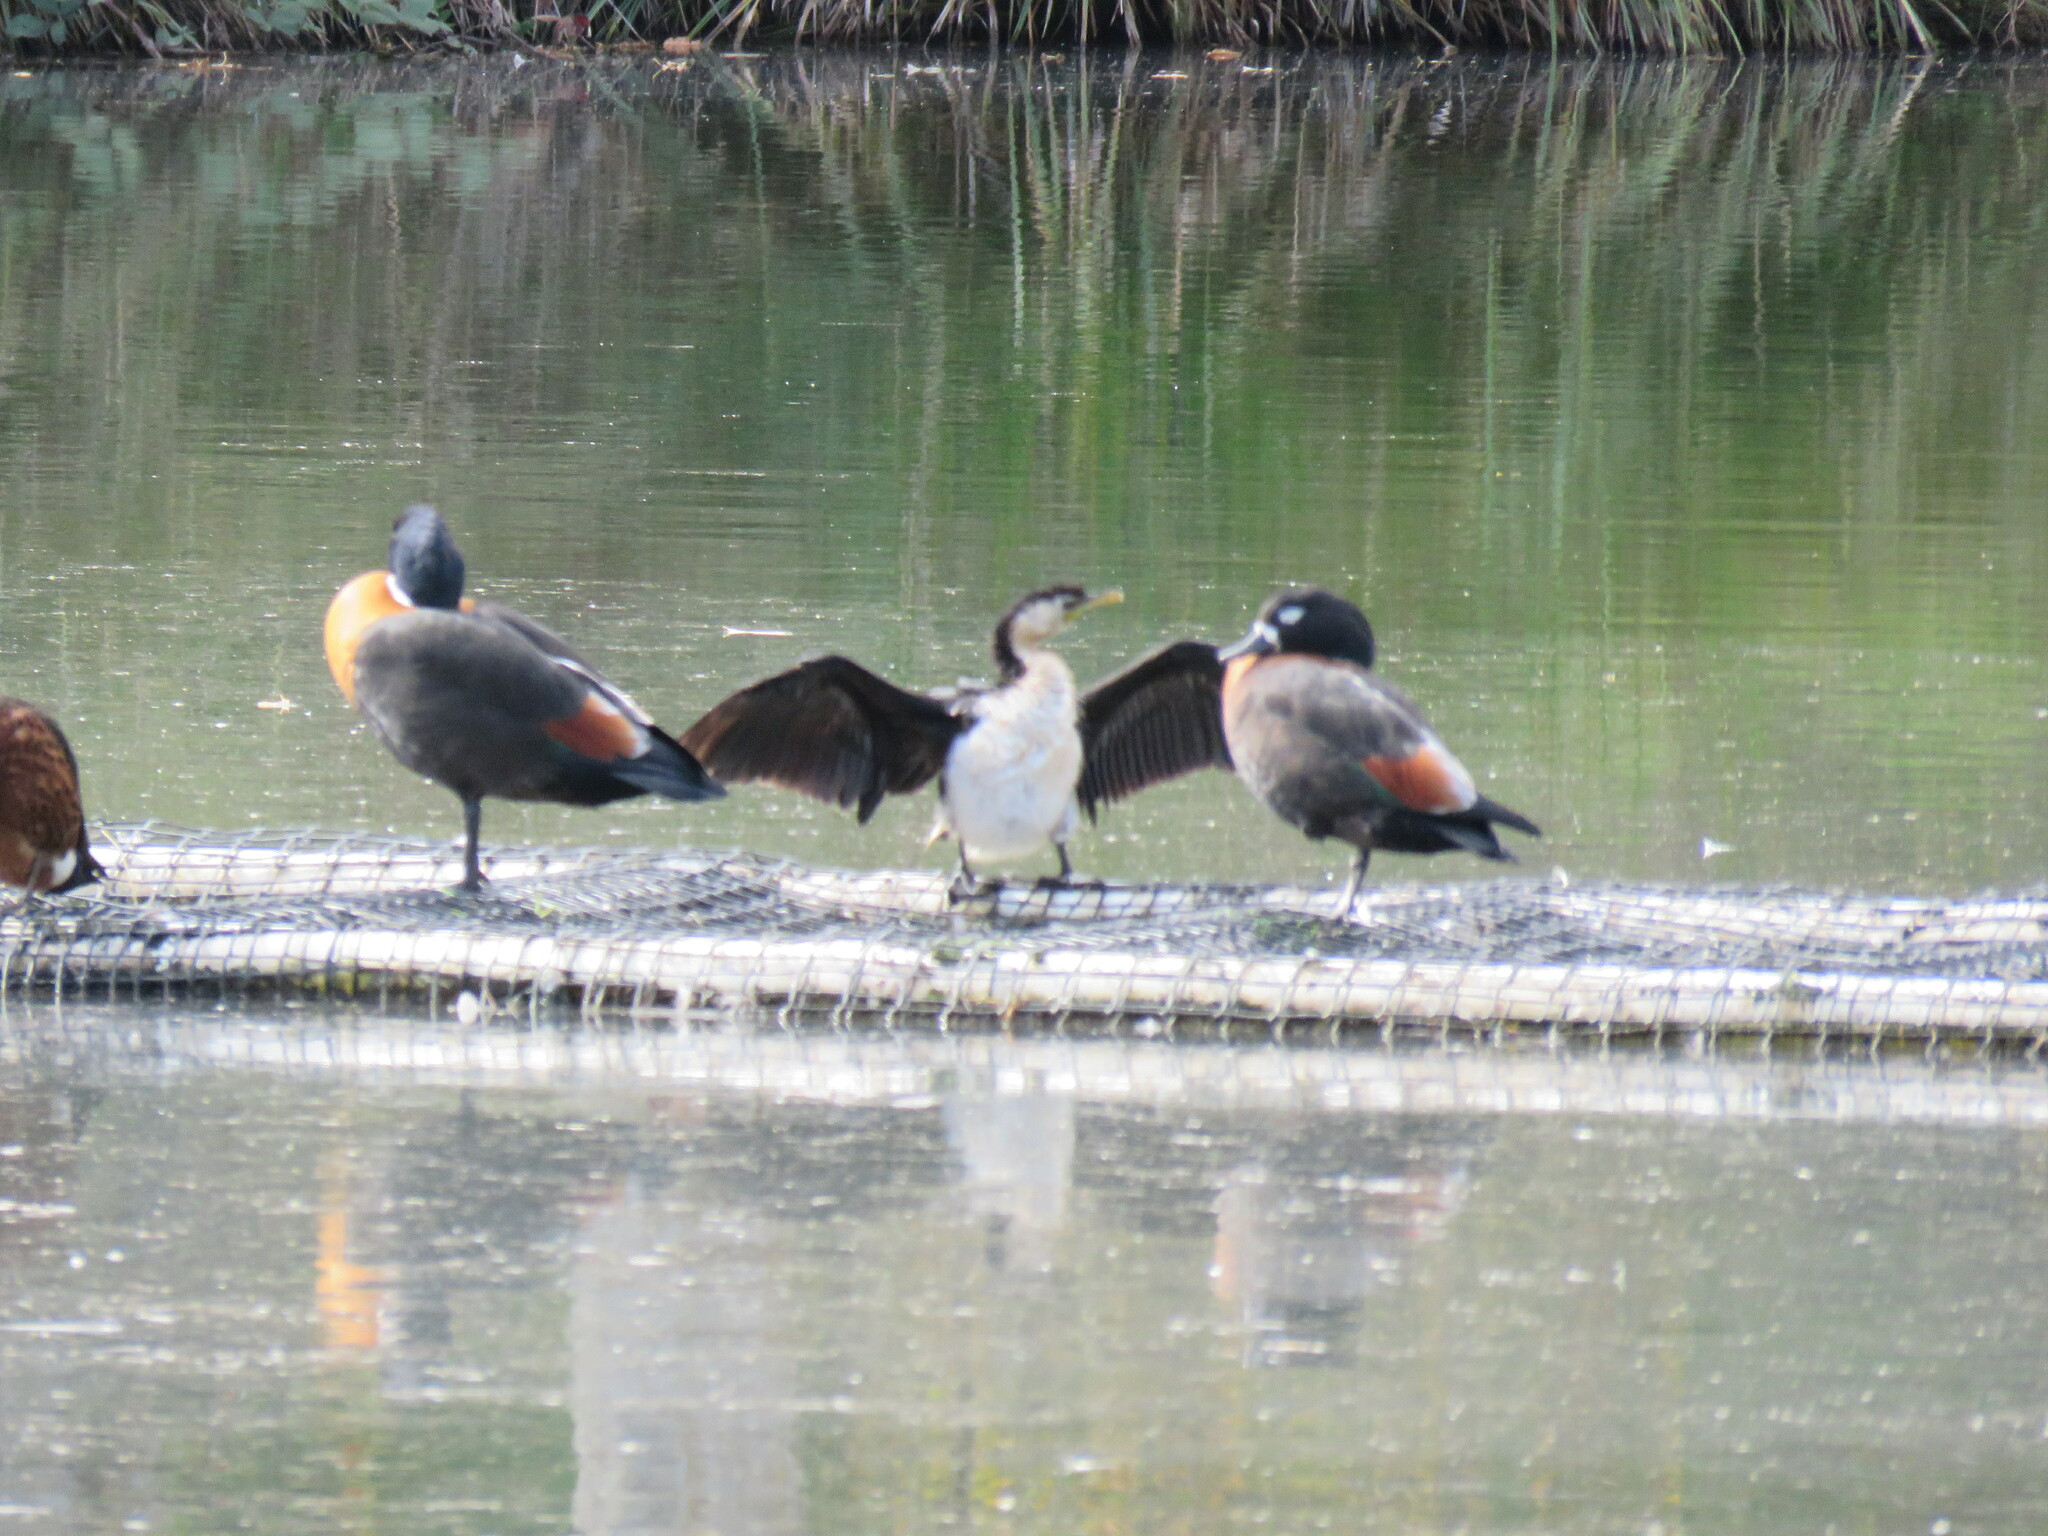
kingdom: Animalia
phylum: Chordata
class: Aves
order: Suliformes
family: Phalacrocoracidae
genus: Microcarbo
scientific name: Microcarbo melanoleucos
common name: Little pied cormorant
